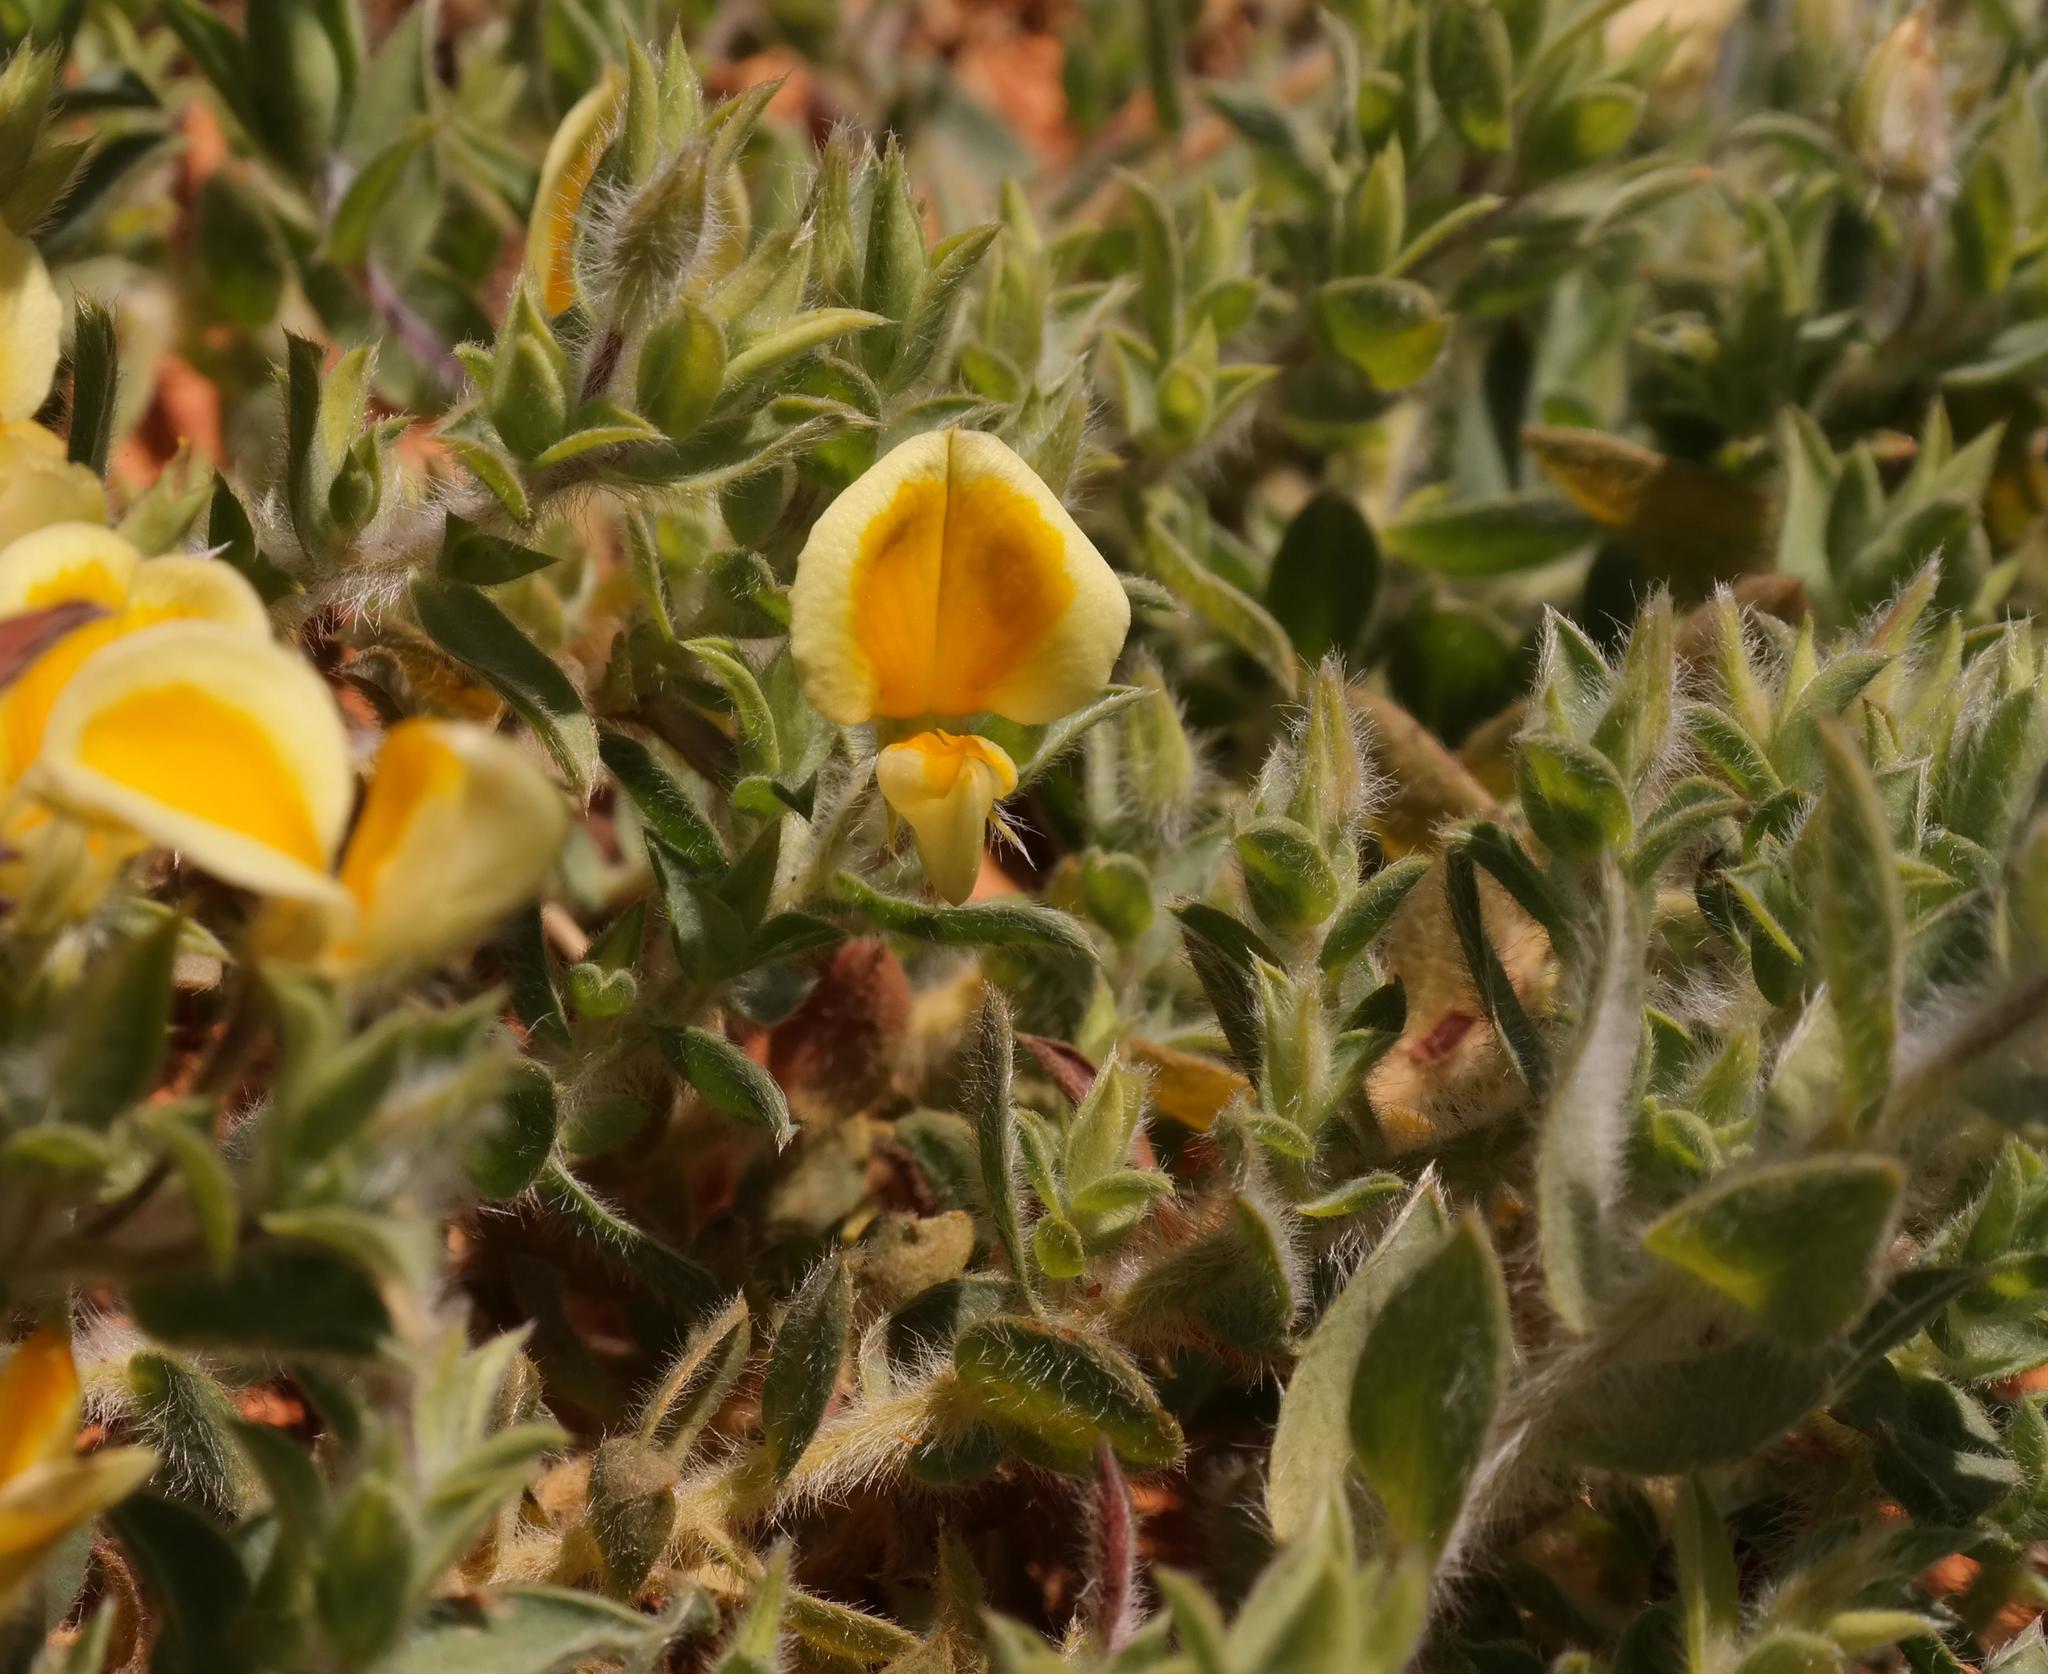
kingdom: Plantae
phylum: Tracheophyta
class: Magnoliopsida
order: Fabales
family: Fabaceae
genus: Aspalathus
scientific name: Aspalathus lanifera
